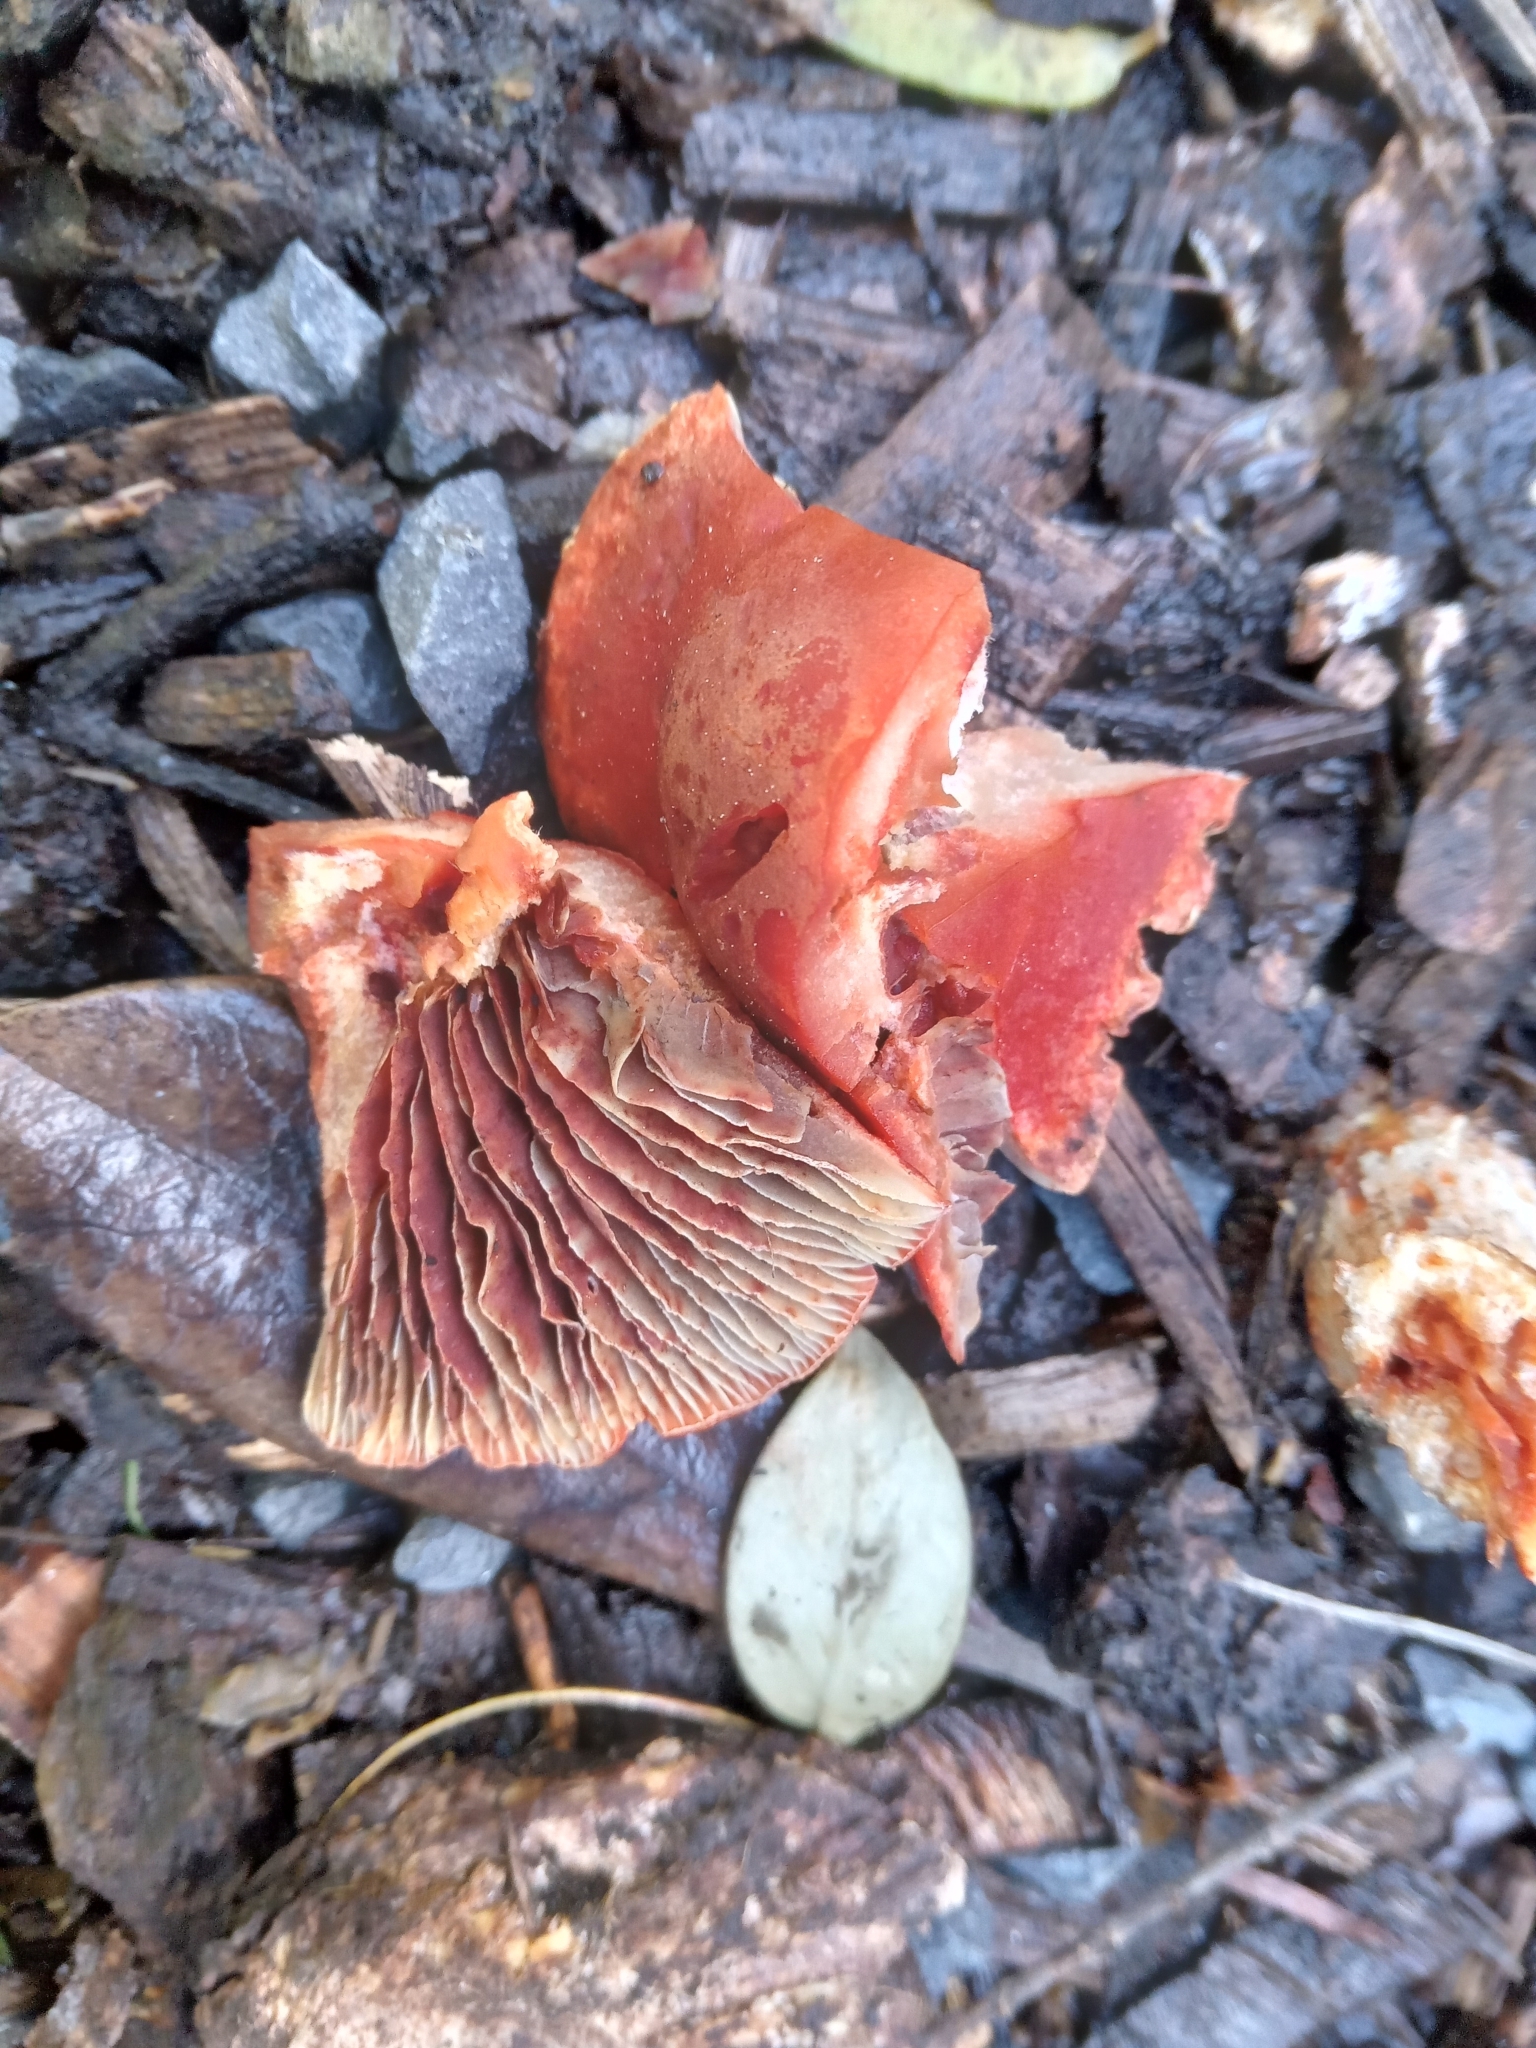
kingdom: Fungi
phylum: Basidiomycota
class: Agaricomycetes
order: Agaricales
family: Strophariaceae
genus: Leratiomyces
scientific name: Leratiomyces ceres
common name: Redlead roundhead
